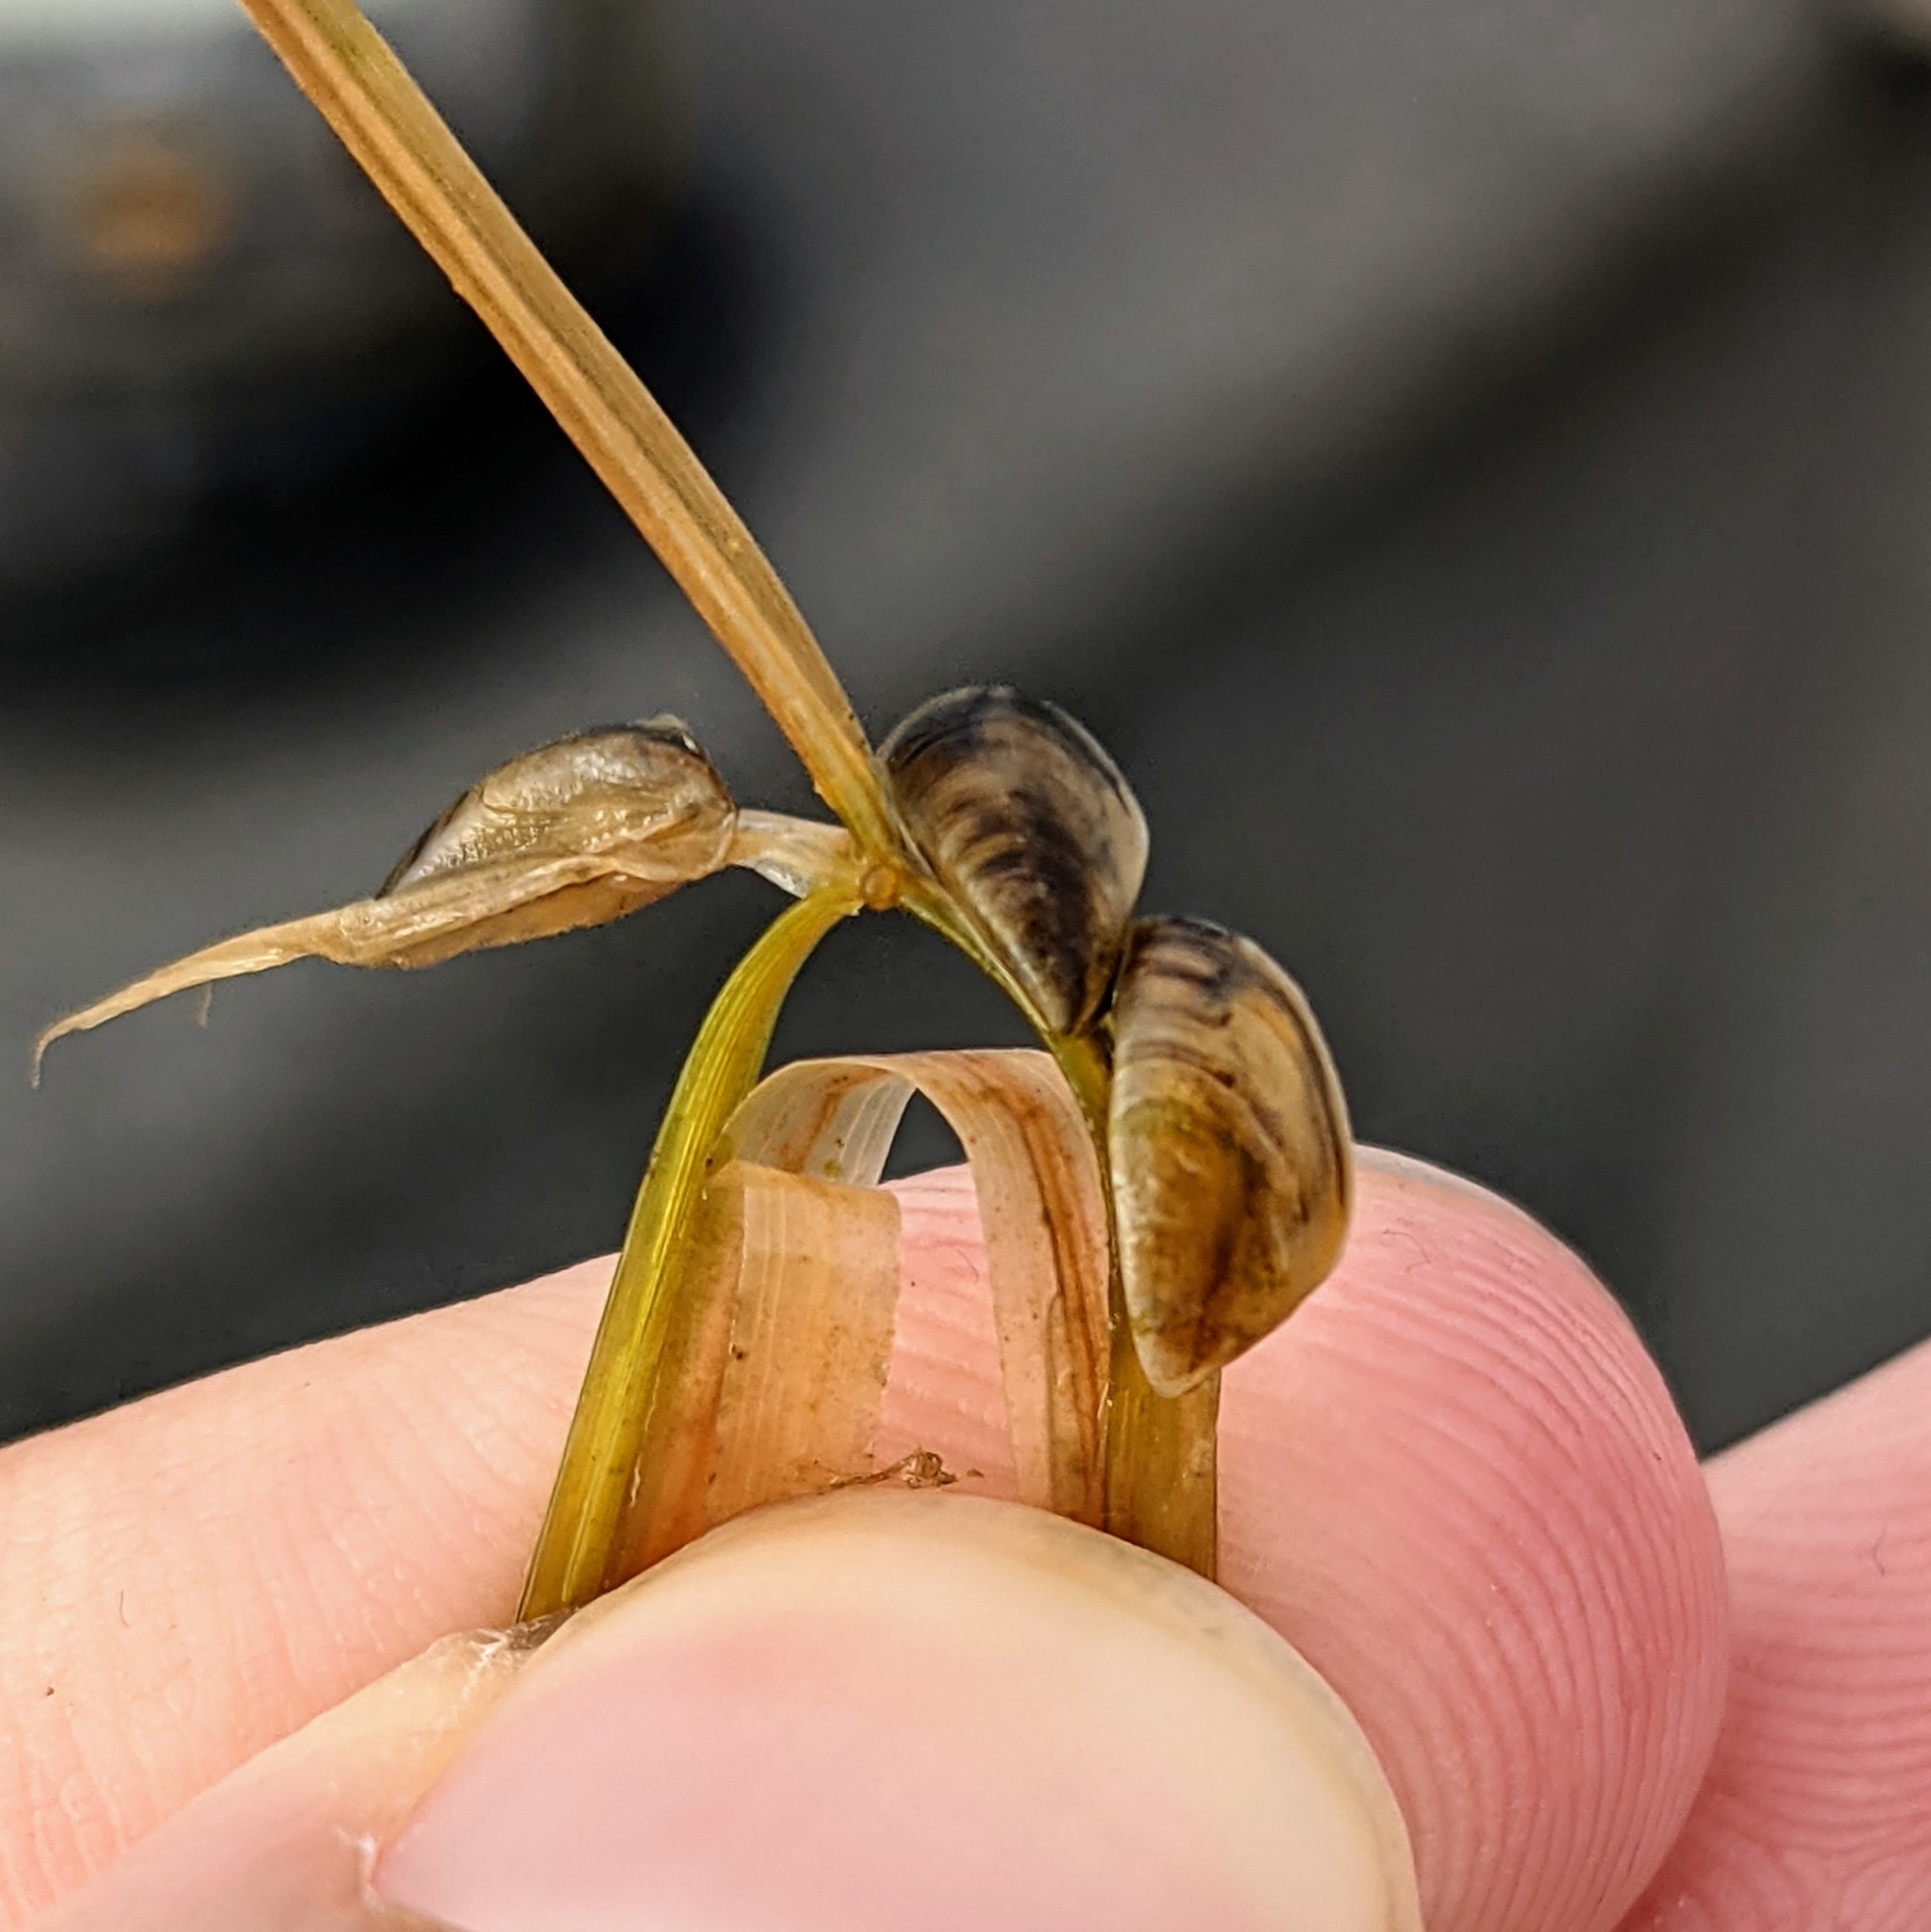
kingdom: Animalia
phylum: Mollusca
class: Bivalvia
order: Myida
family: Dreissenidae
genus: Dreissena
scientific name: Dreissena polymorpha
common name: Zebra mussel
